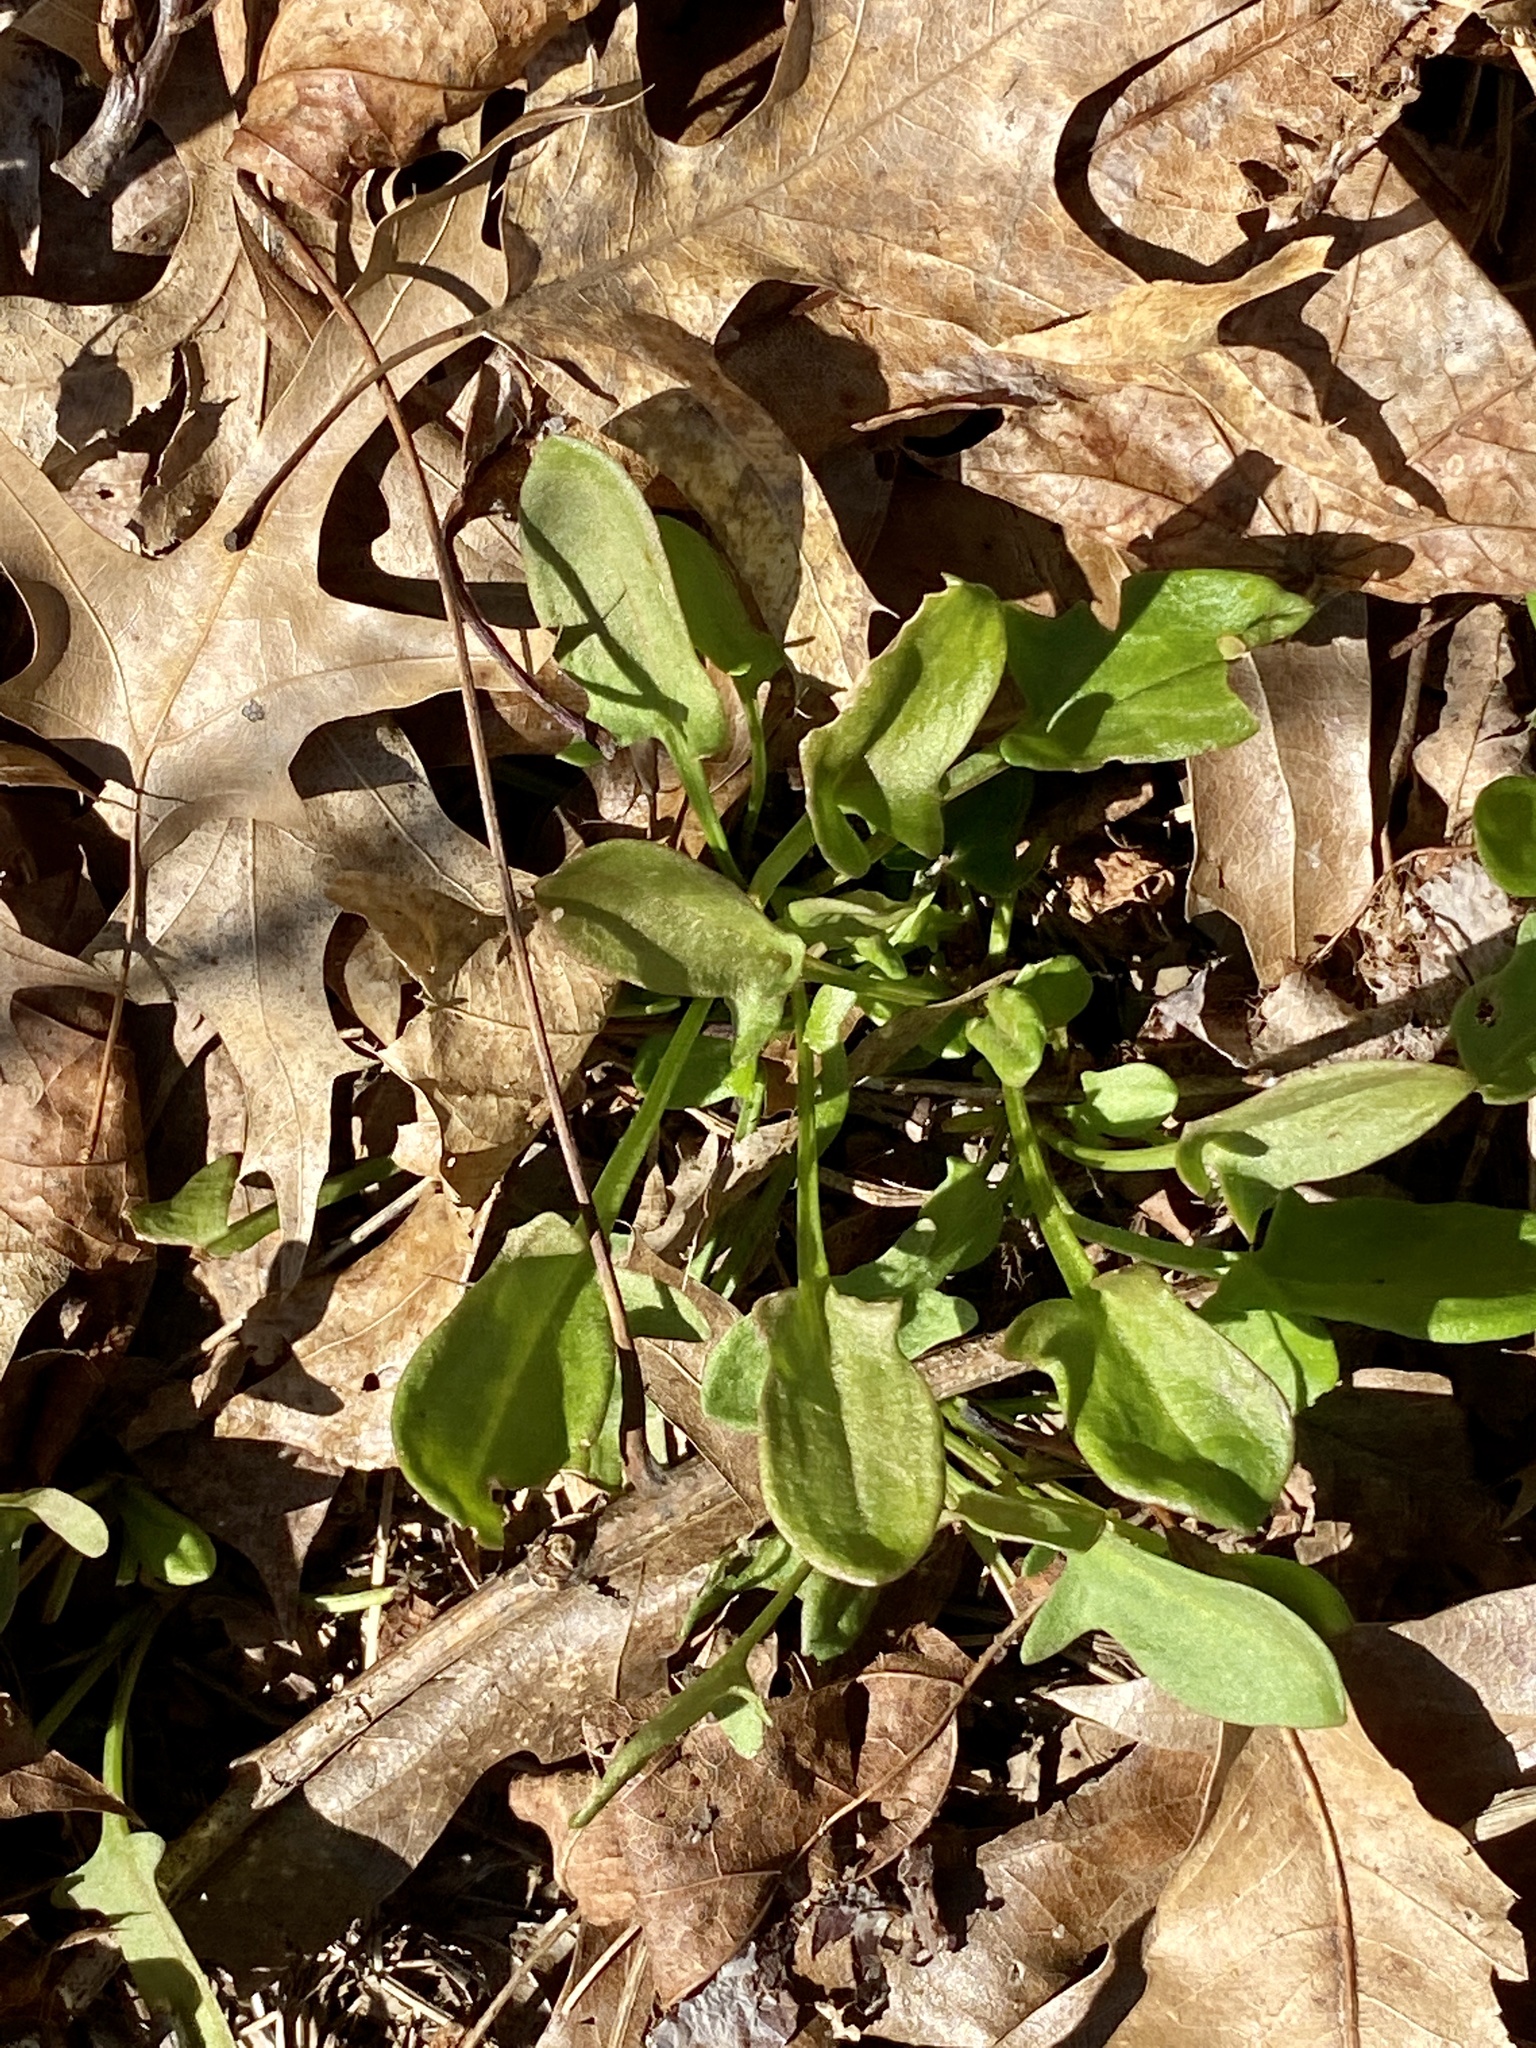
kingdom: Plantae
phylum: Tracheophyta
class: Magnoliopsida
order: Caryophyllales
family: Polygonaceae
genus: Rumex
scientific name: Rumex acetosella
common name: Common sheep sorrel
